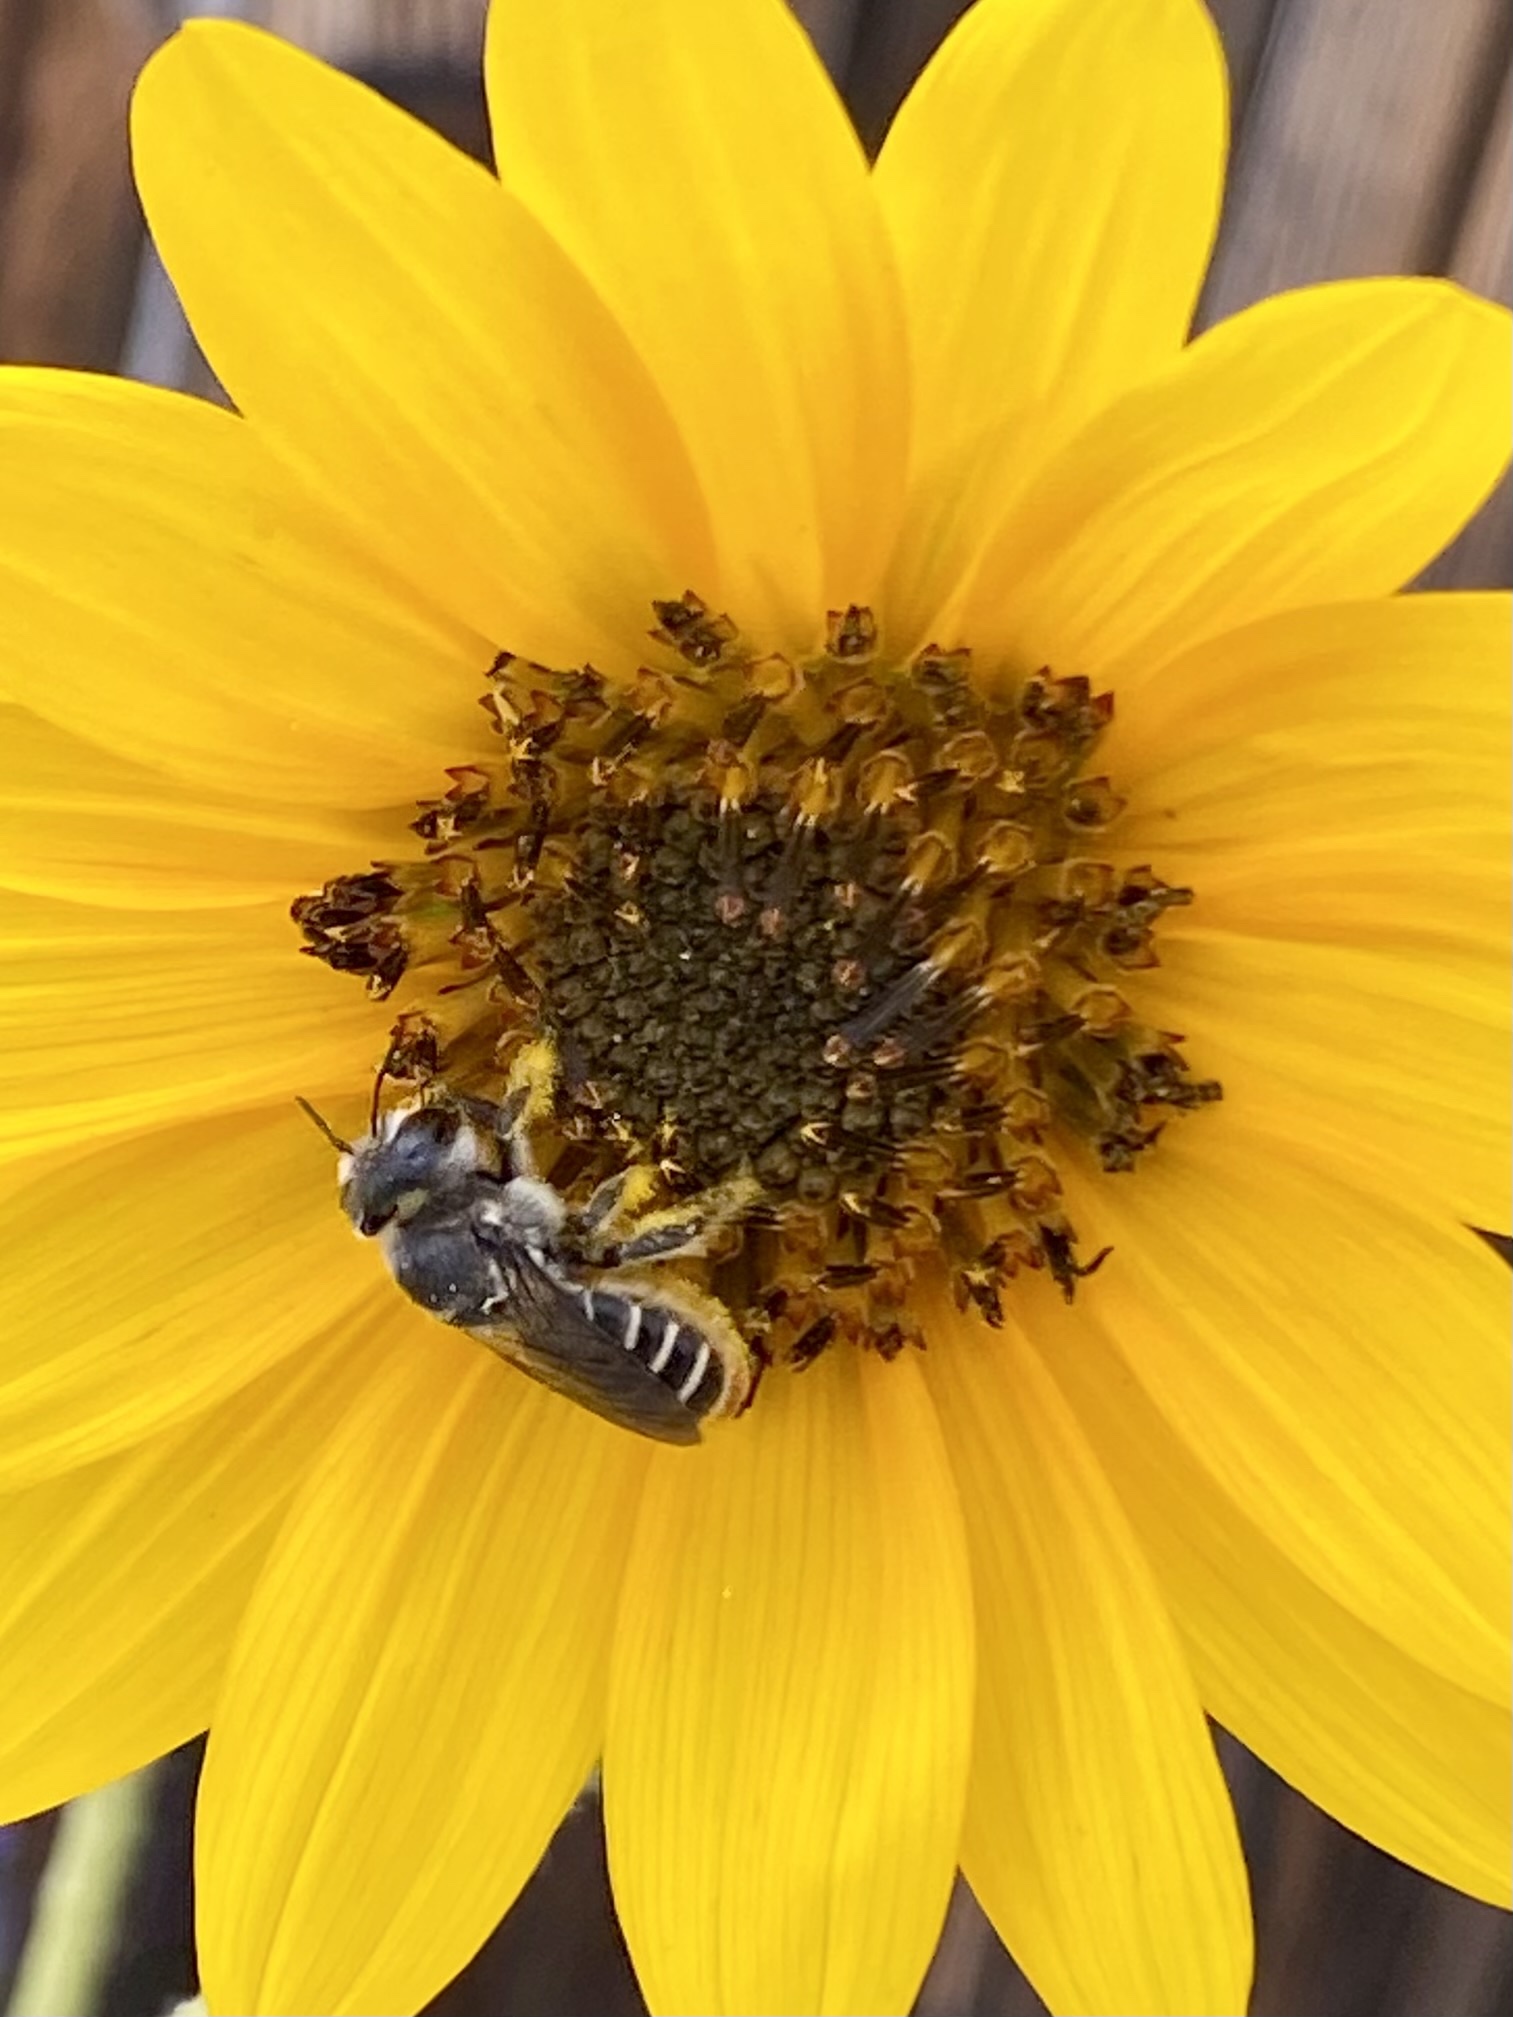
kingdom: Animalia
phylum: Arthropoda
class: Insecta
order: Hymenoptera
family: Megachilidae
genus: Lithurgopsis
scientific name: Lithurgopsis apicalis
